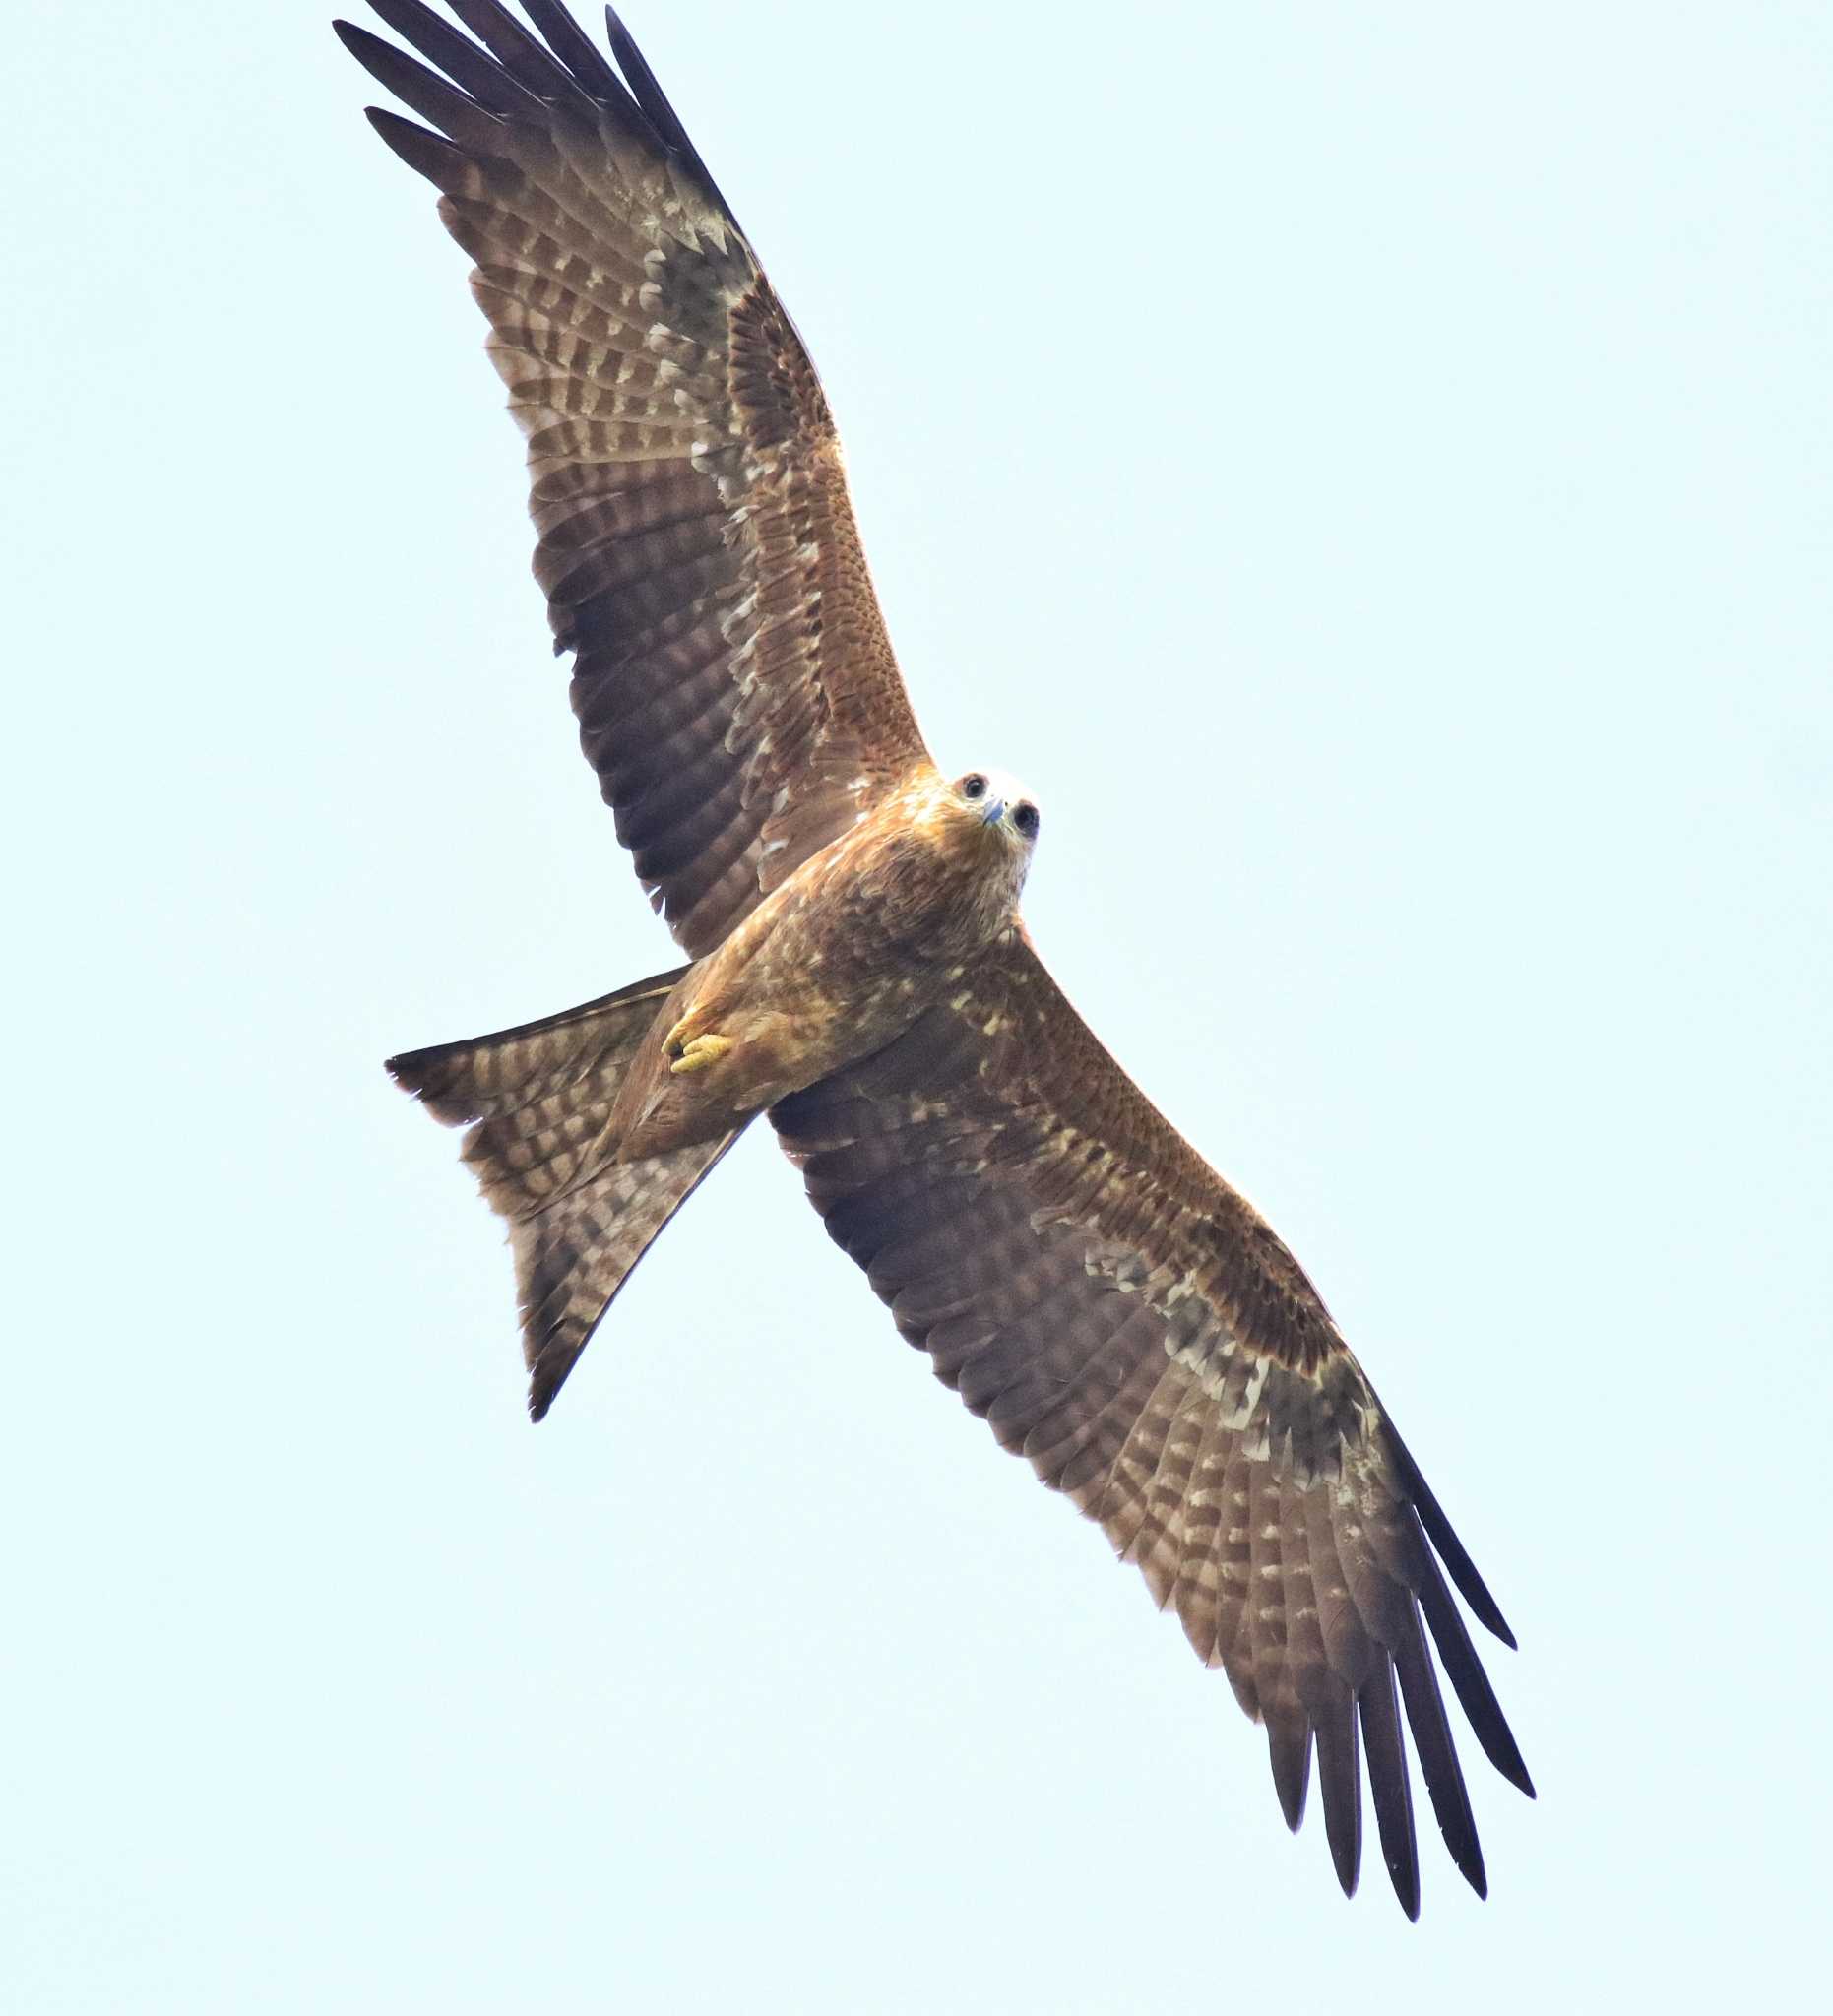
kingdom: Animalia
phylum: Chordata
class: Aves
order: Accipitriformes
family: Accipitridae
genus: Milvus
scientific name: Milvus migrans
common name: Black kite
